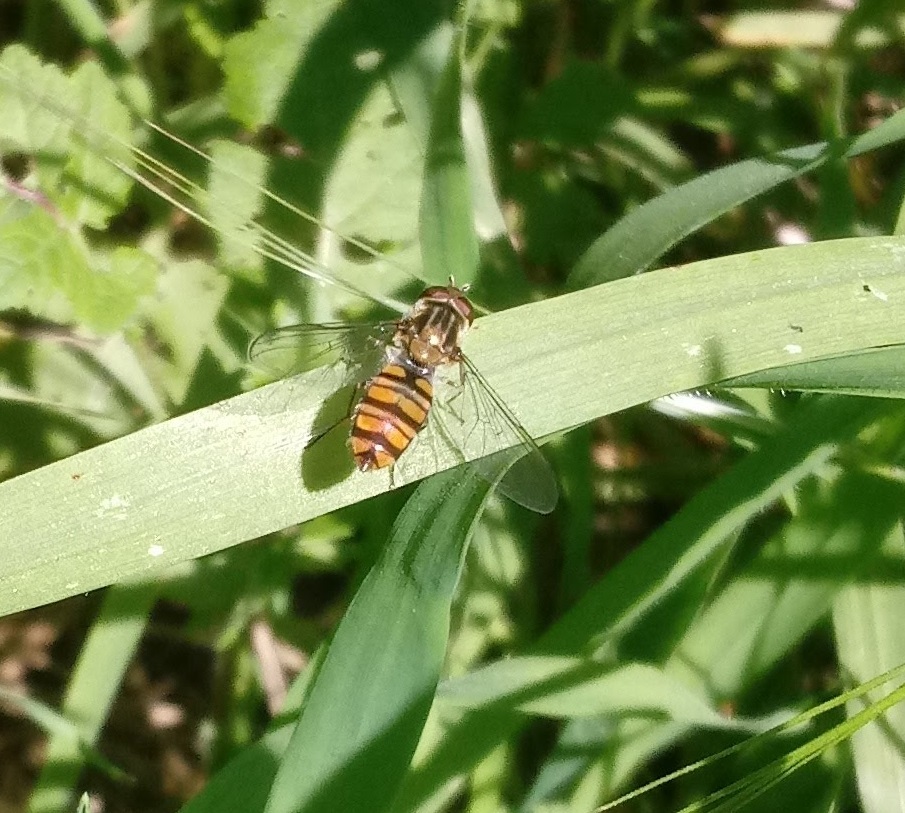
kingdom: Animalia
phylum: Arthropoda
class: Insecta
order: Diptera
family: Syrphidae
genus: Episyrphus
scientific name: Episyrphus balteatus
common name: Marmalade hoverfly
